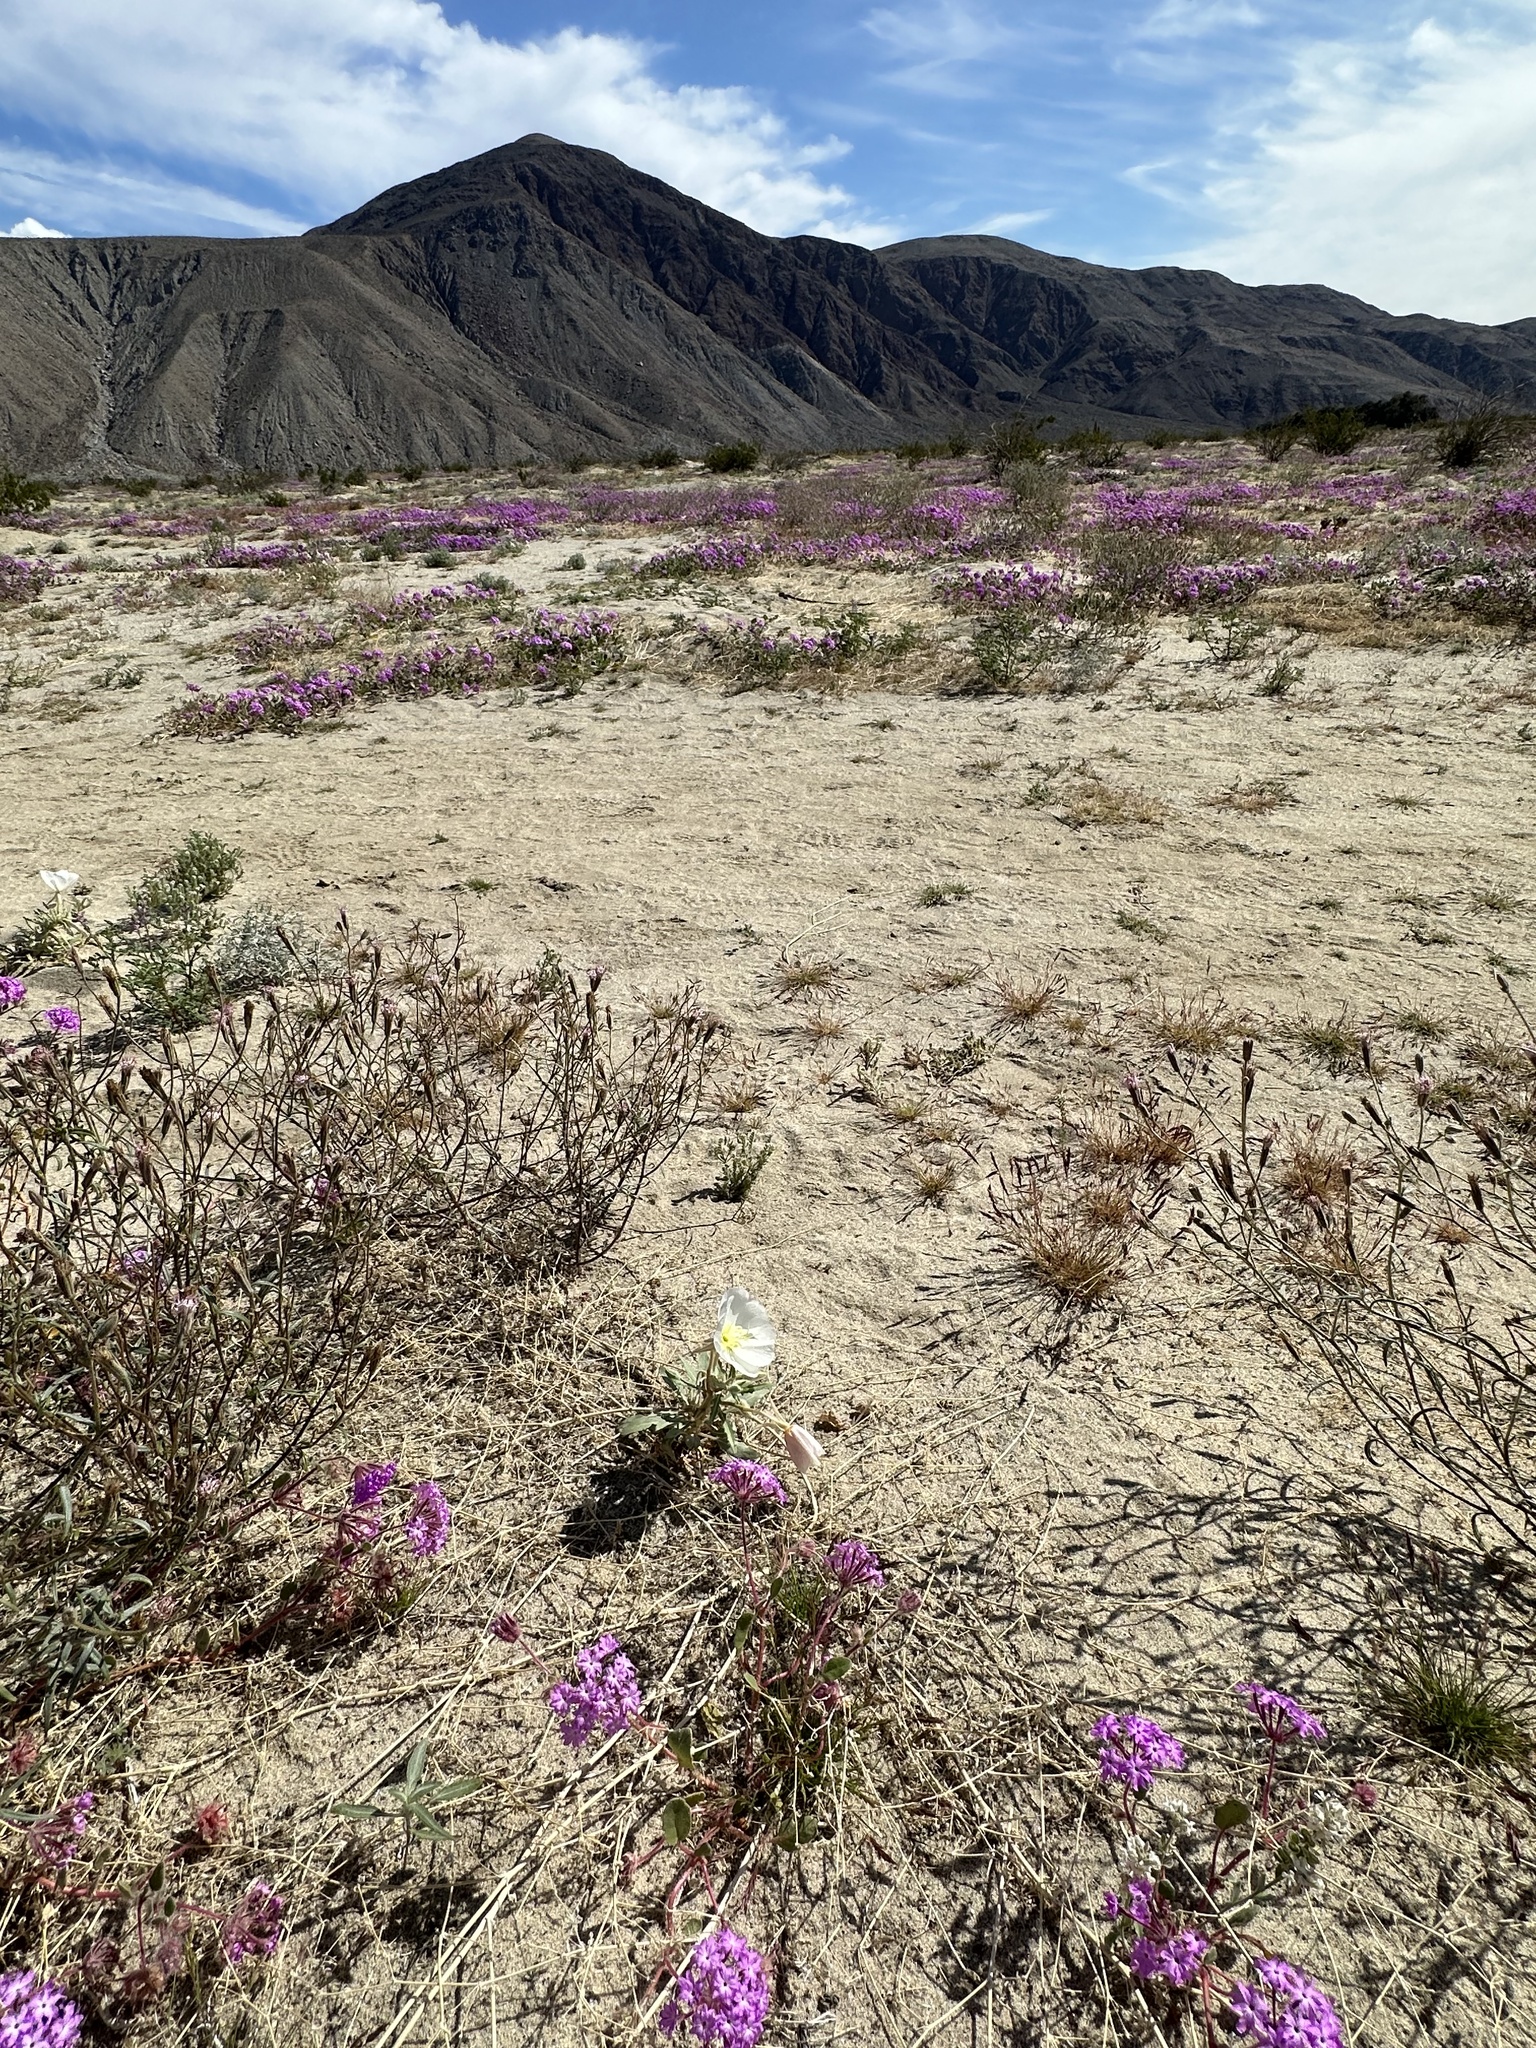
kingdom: Plantae
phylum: Tracheophyta
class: Magnoliopsida
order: Myrtales
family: Onagraceae
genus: Oenothera
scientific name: Oenothera deltoides
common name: Basket evening-primrose
